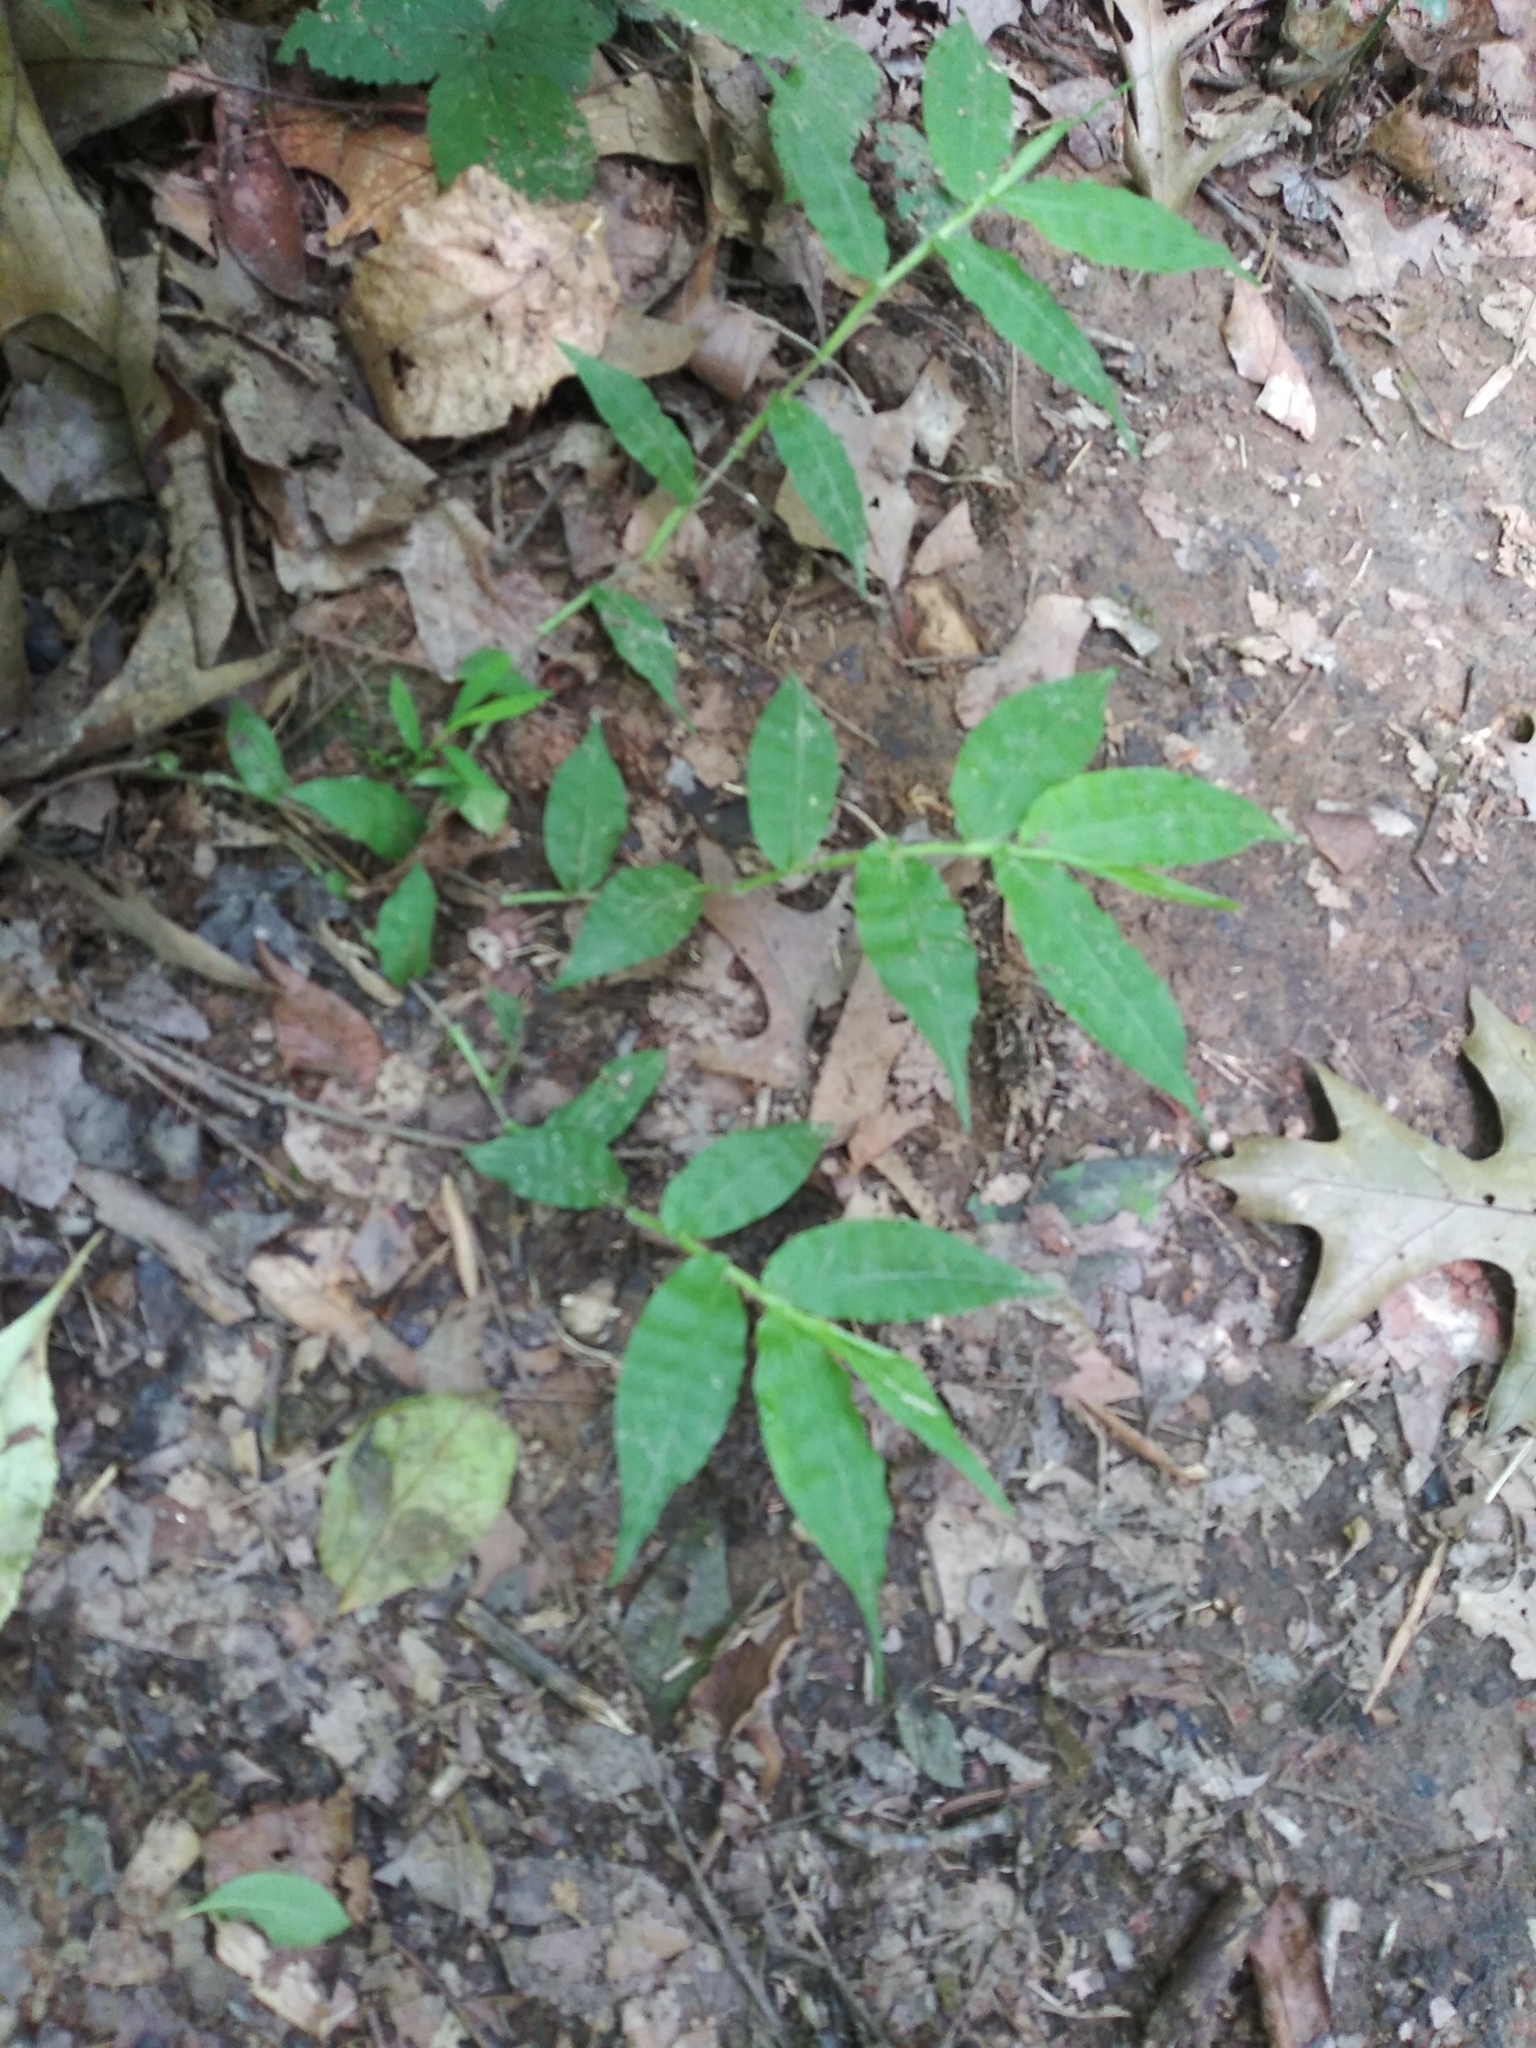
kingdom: Plantae
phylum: Tracheophyta
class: Liliopsida
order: Poales
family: Poaceae
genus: Oplismenus
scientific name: Oplismenus undulatifolius
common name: Wavyleaf basketgrass
